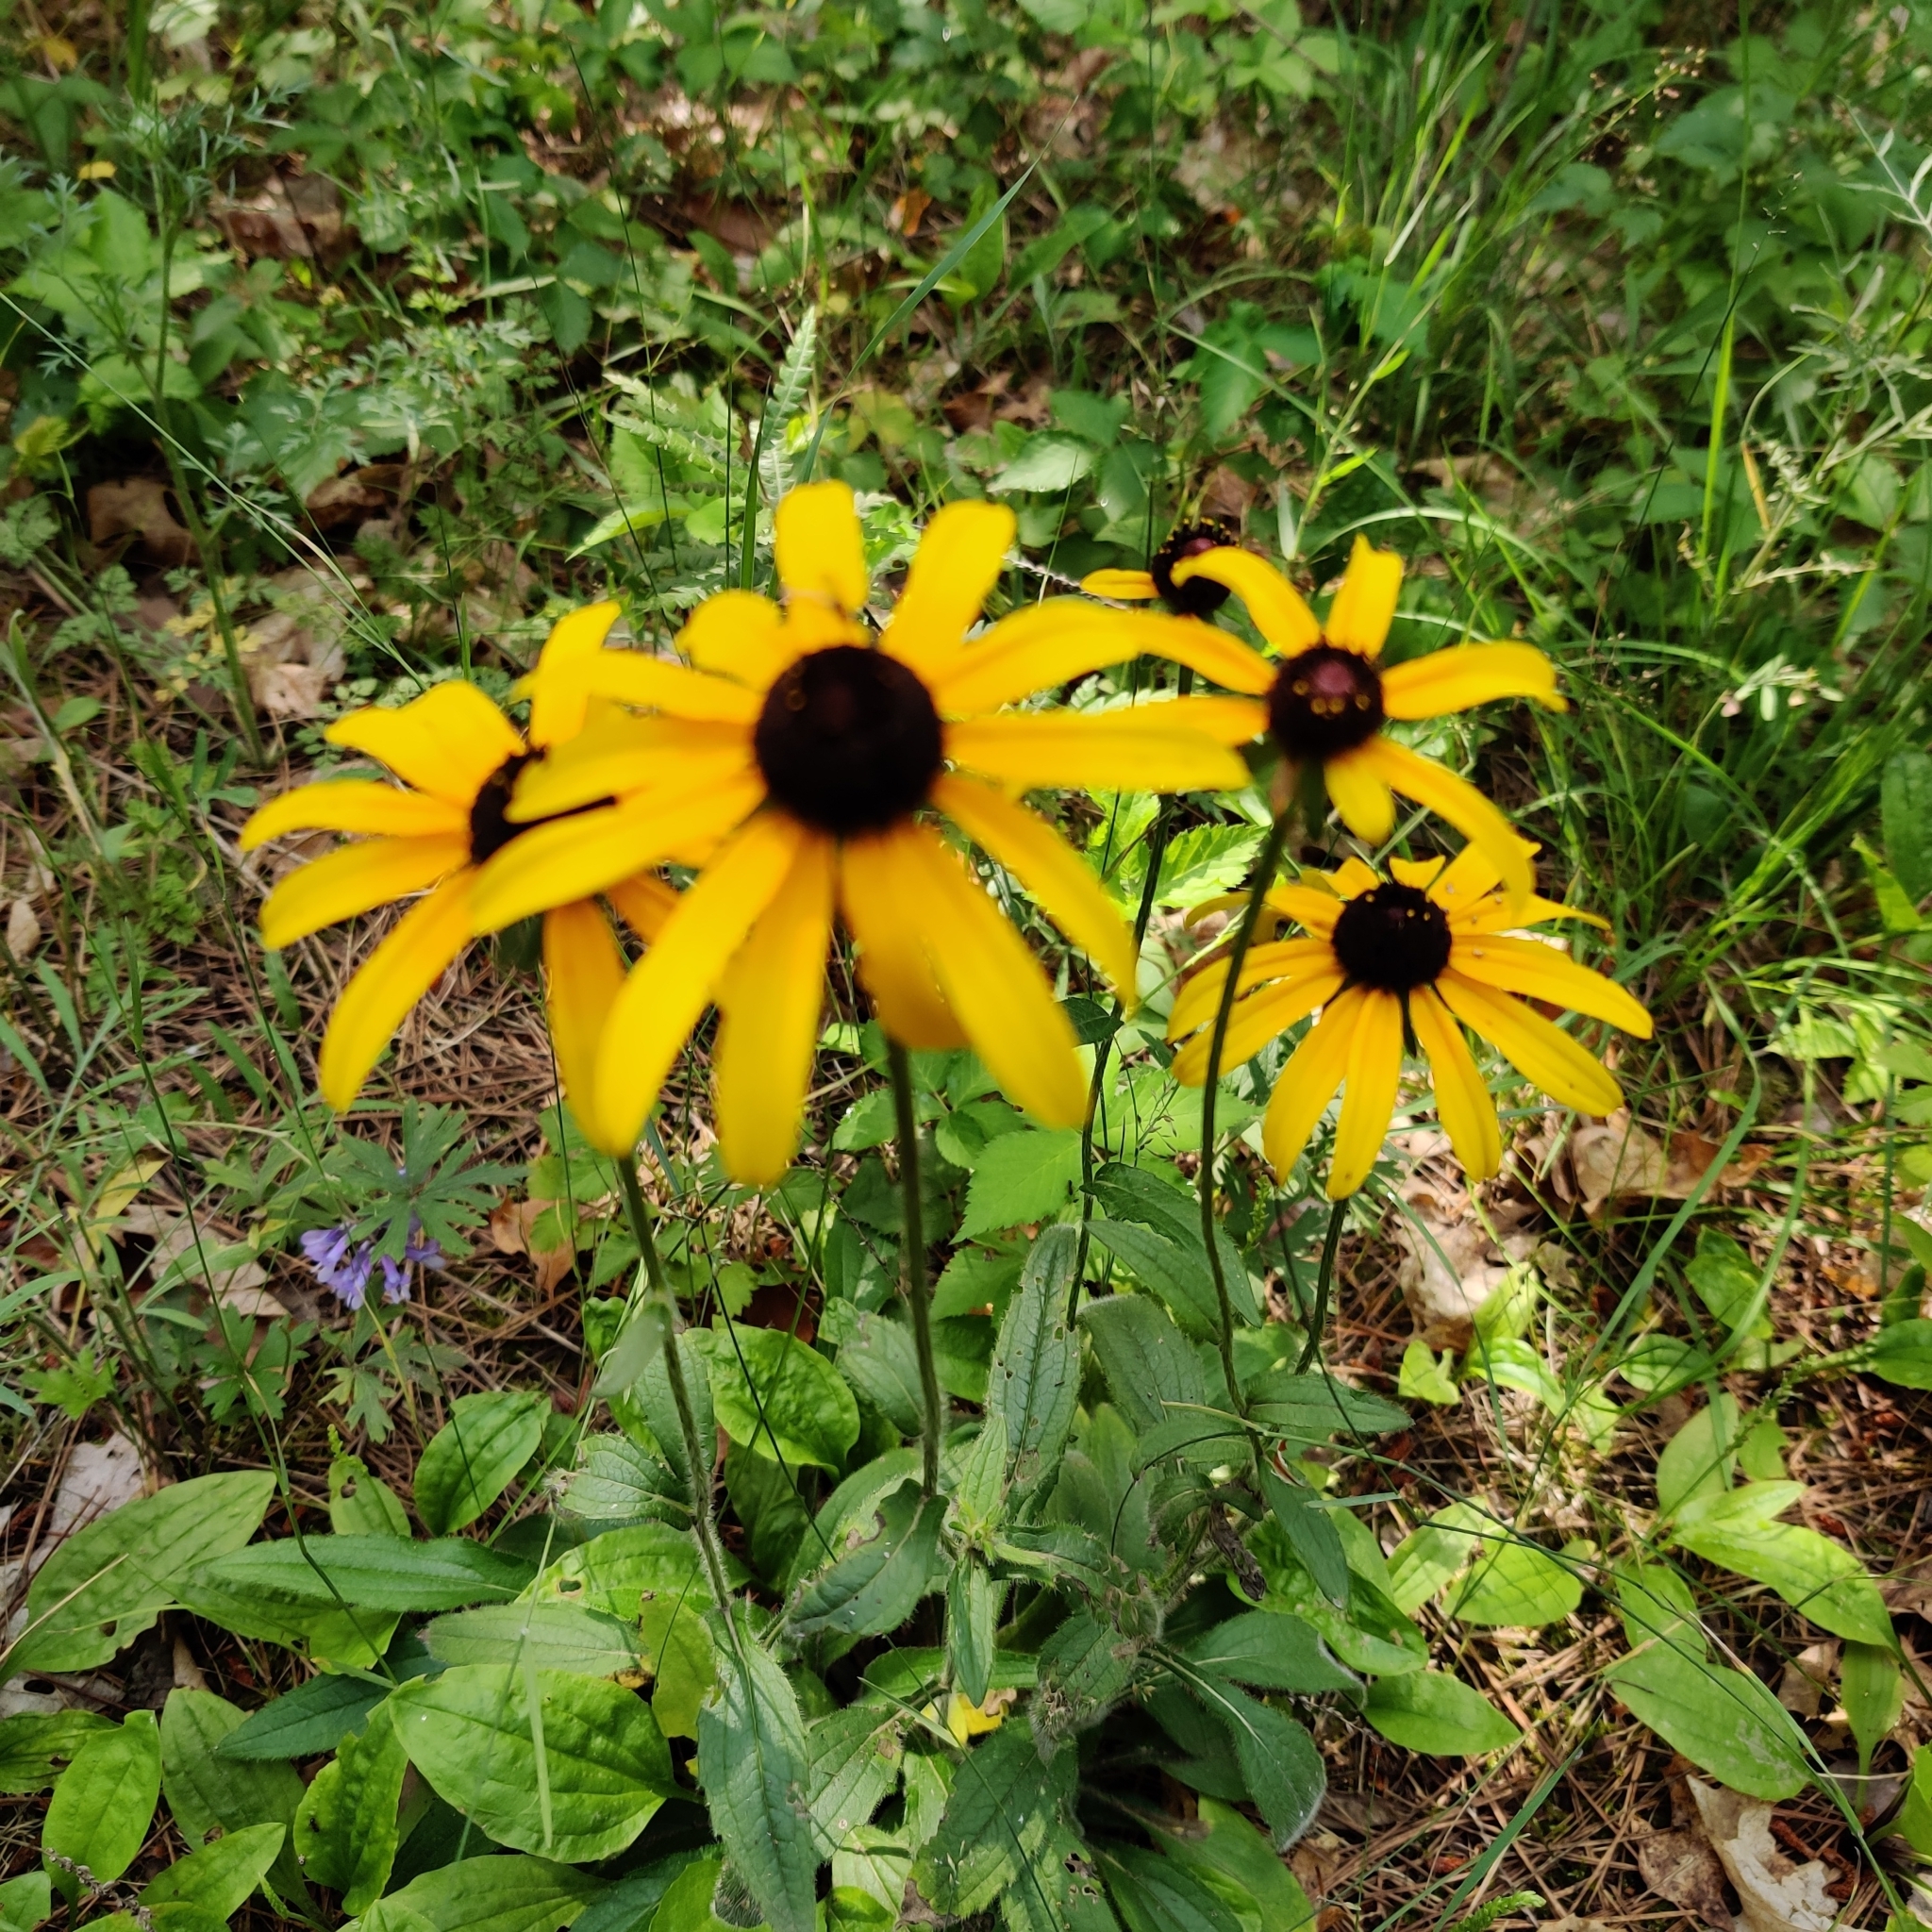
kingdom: Plantae
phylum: Tracheophyta
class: Magnoliopsida
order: Asterales
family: Asteraceae
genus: Rudbeckia
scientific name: Rudbeckia hirta
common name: Black-eyed-susan
